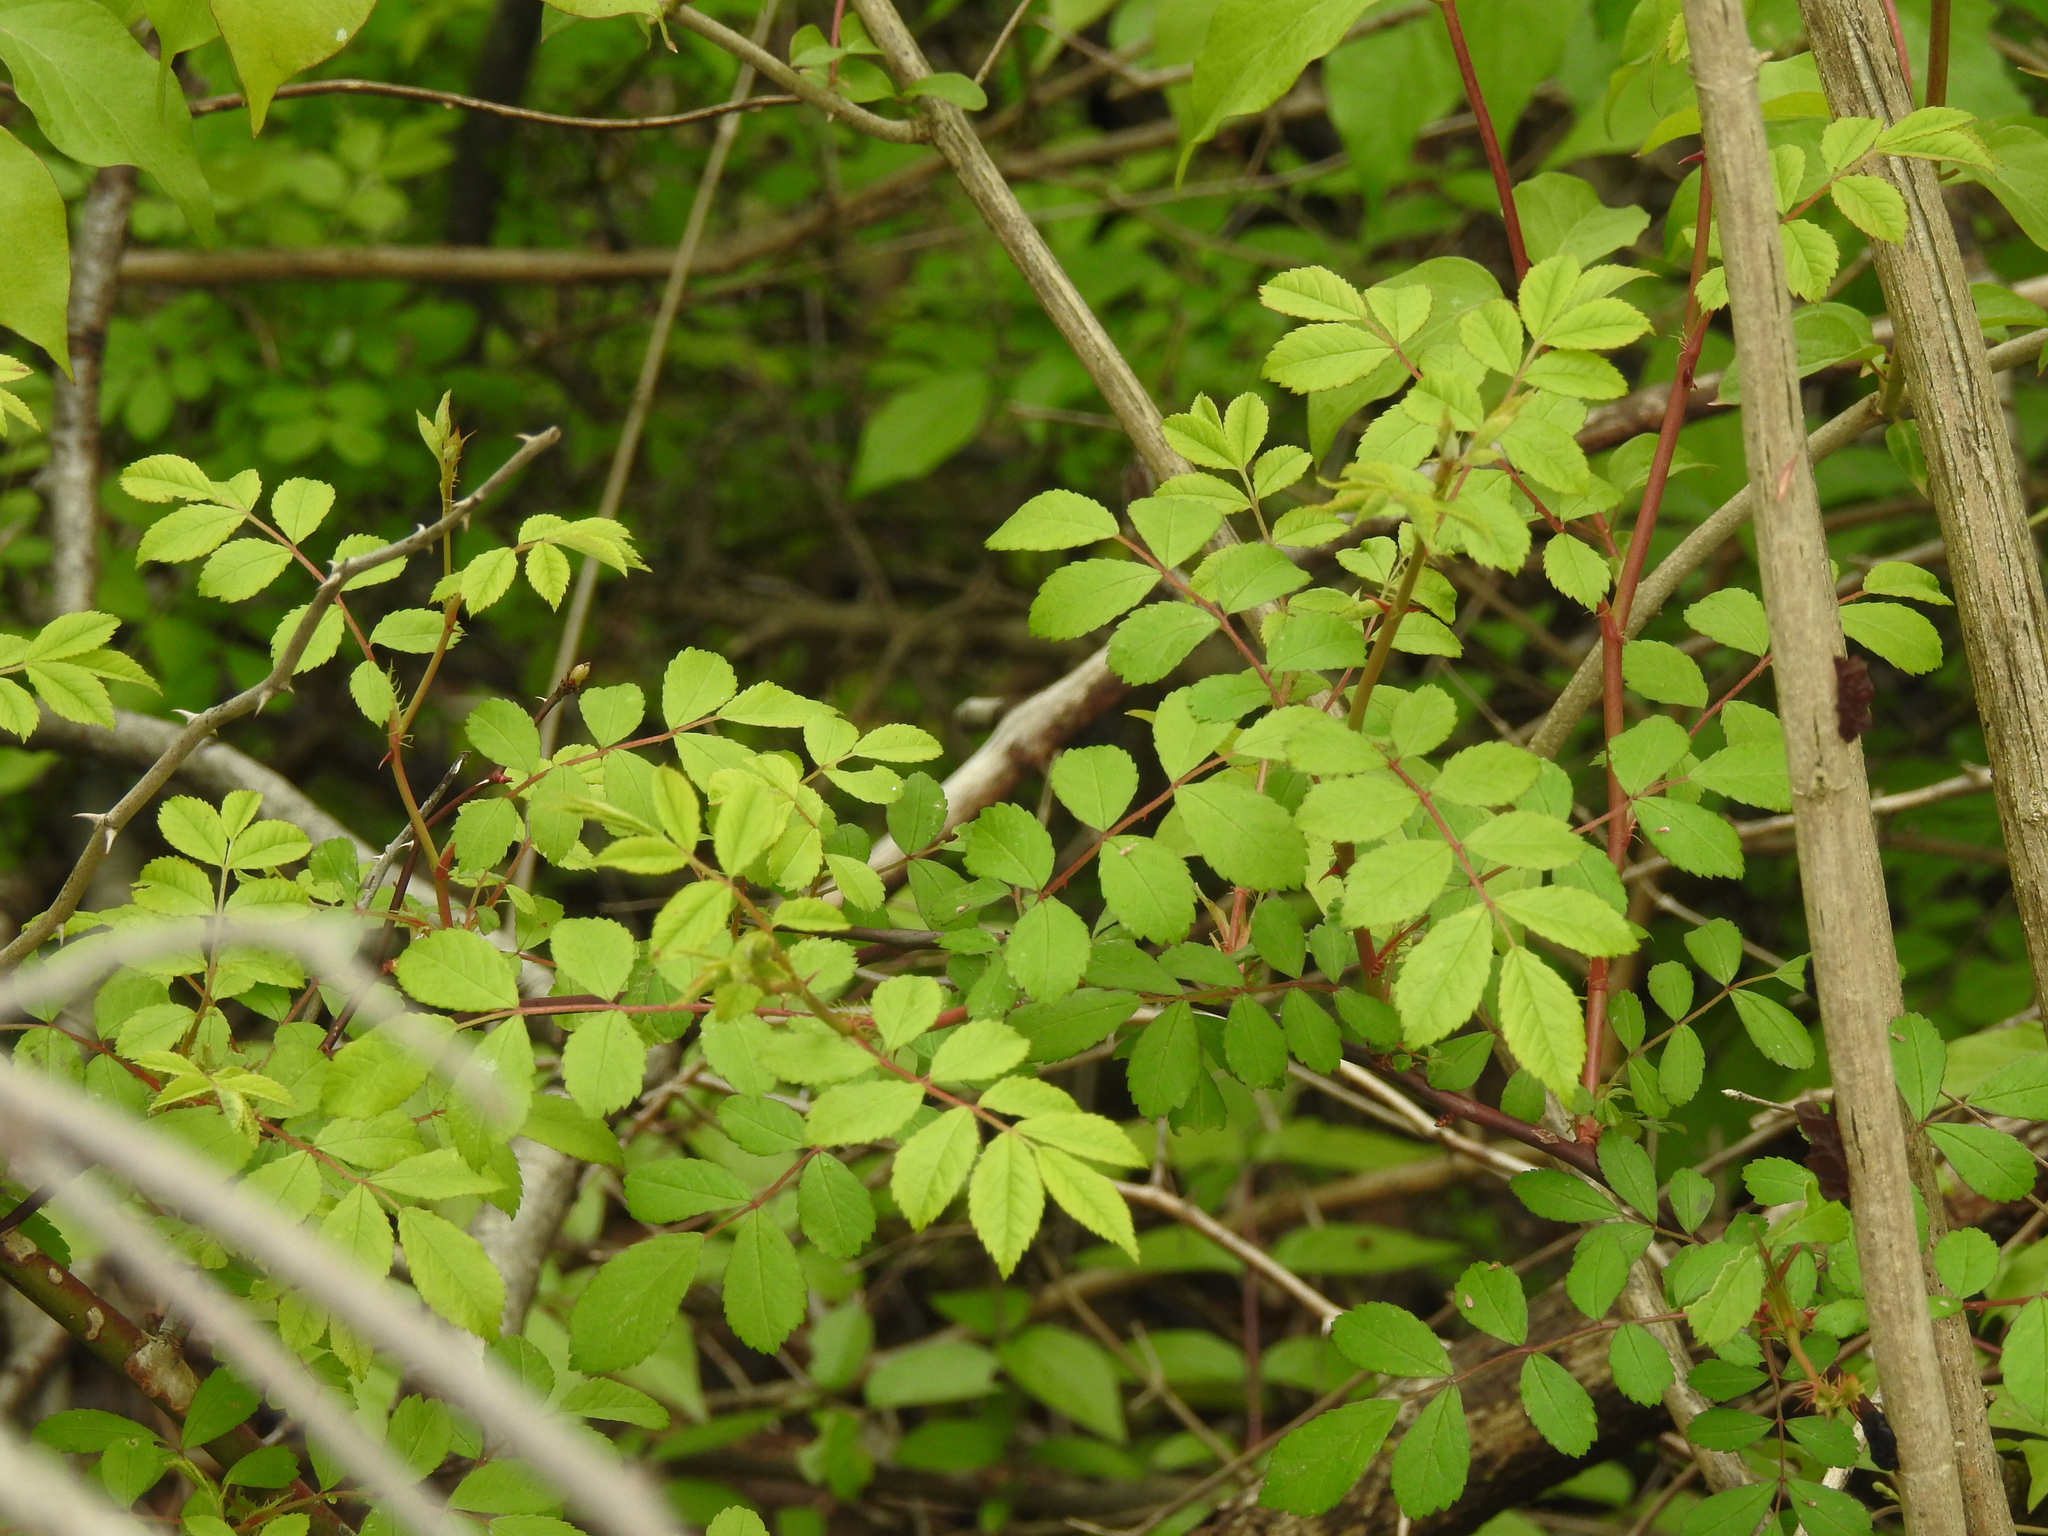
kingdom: Plantae
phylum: Tracheophyta
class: Magnoliopsida
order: Rosales
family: Rosaceae
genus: Rosa
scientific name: Rosa multiflora
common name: Multiflora rose
